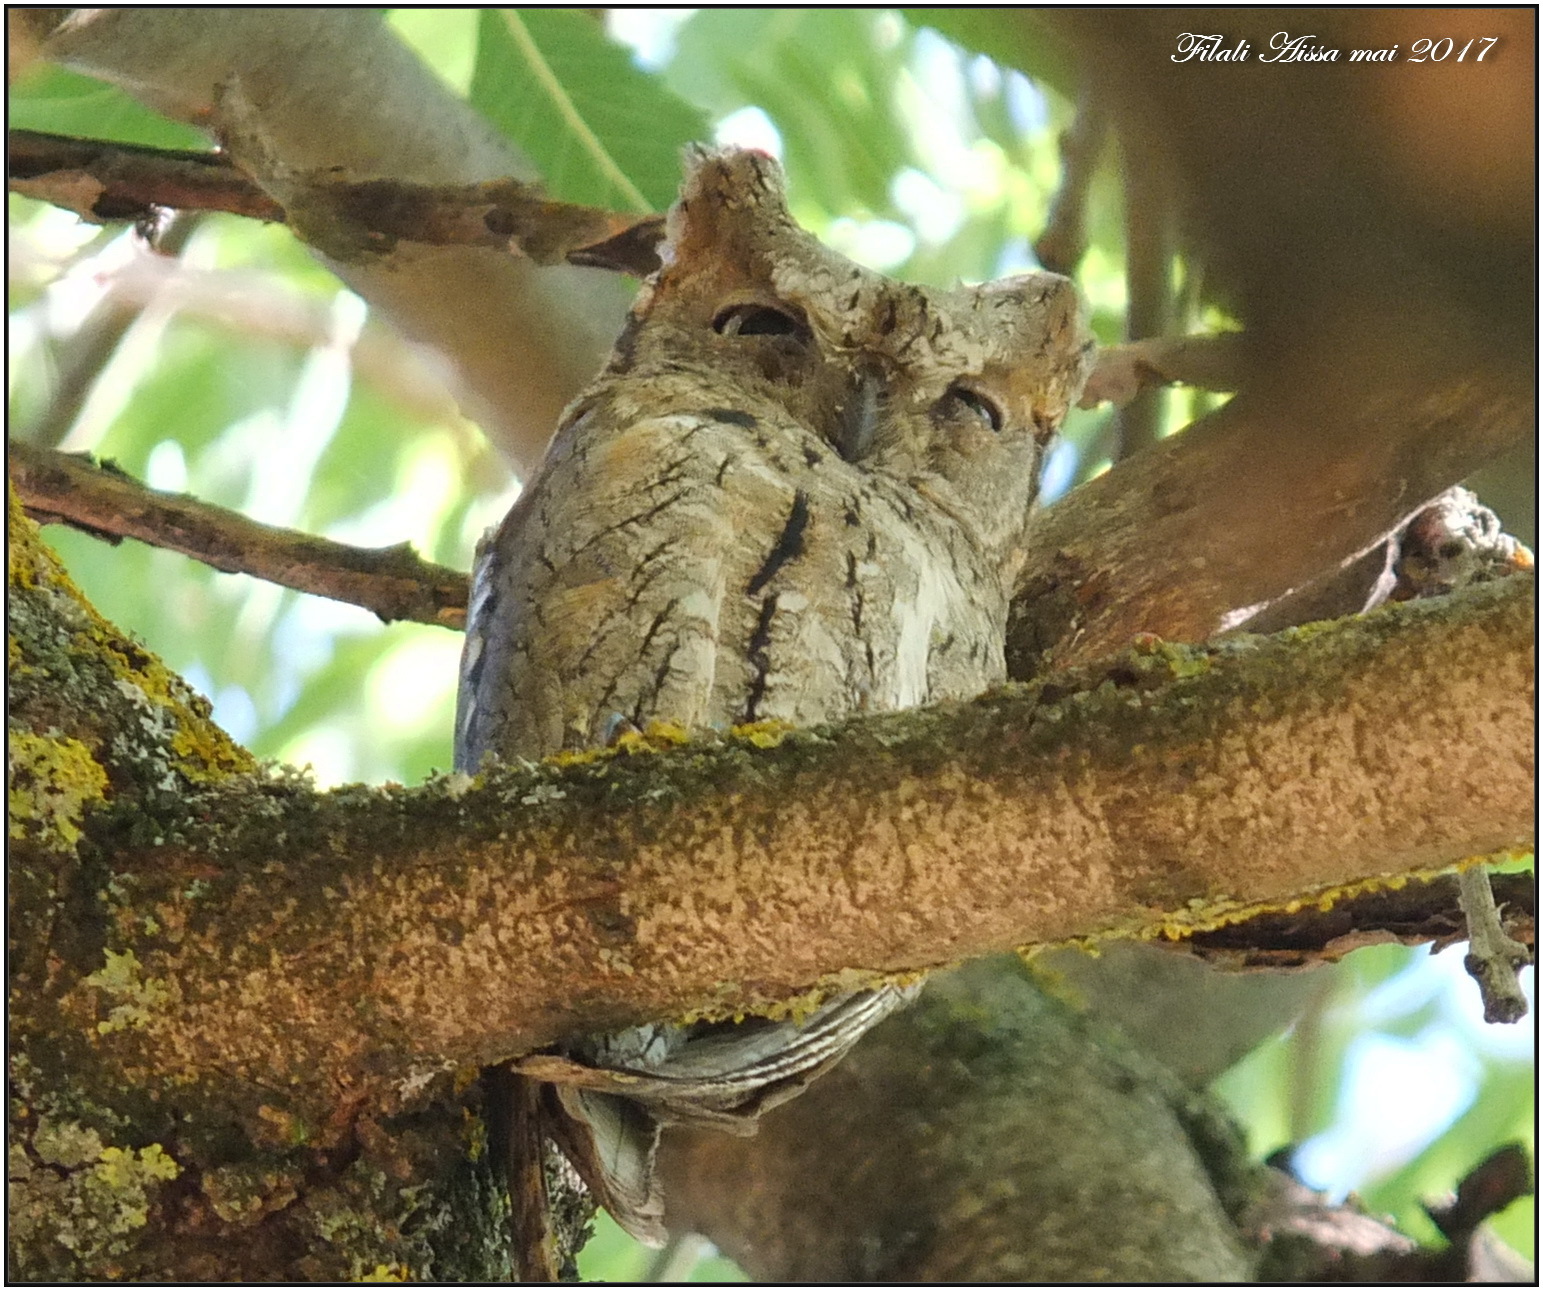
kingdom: Animalia
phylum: Chordata
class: Aves
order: Strigiformes
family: Strigidae
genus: Otus
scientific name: Otus scops
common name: Eurasian scops owl
